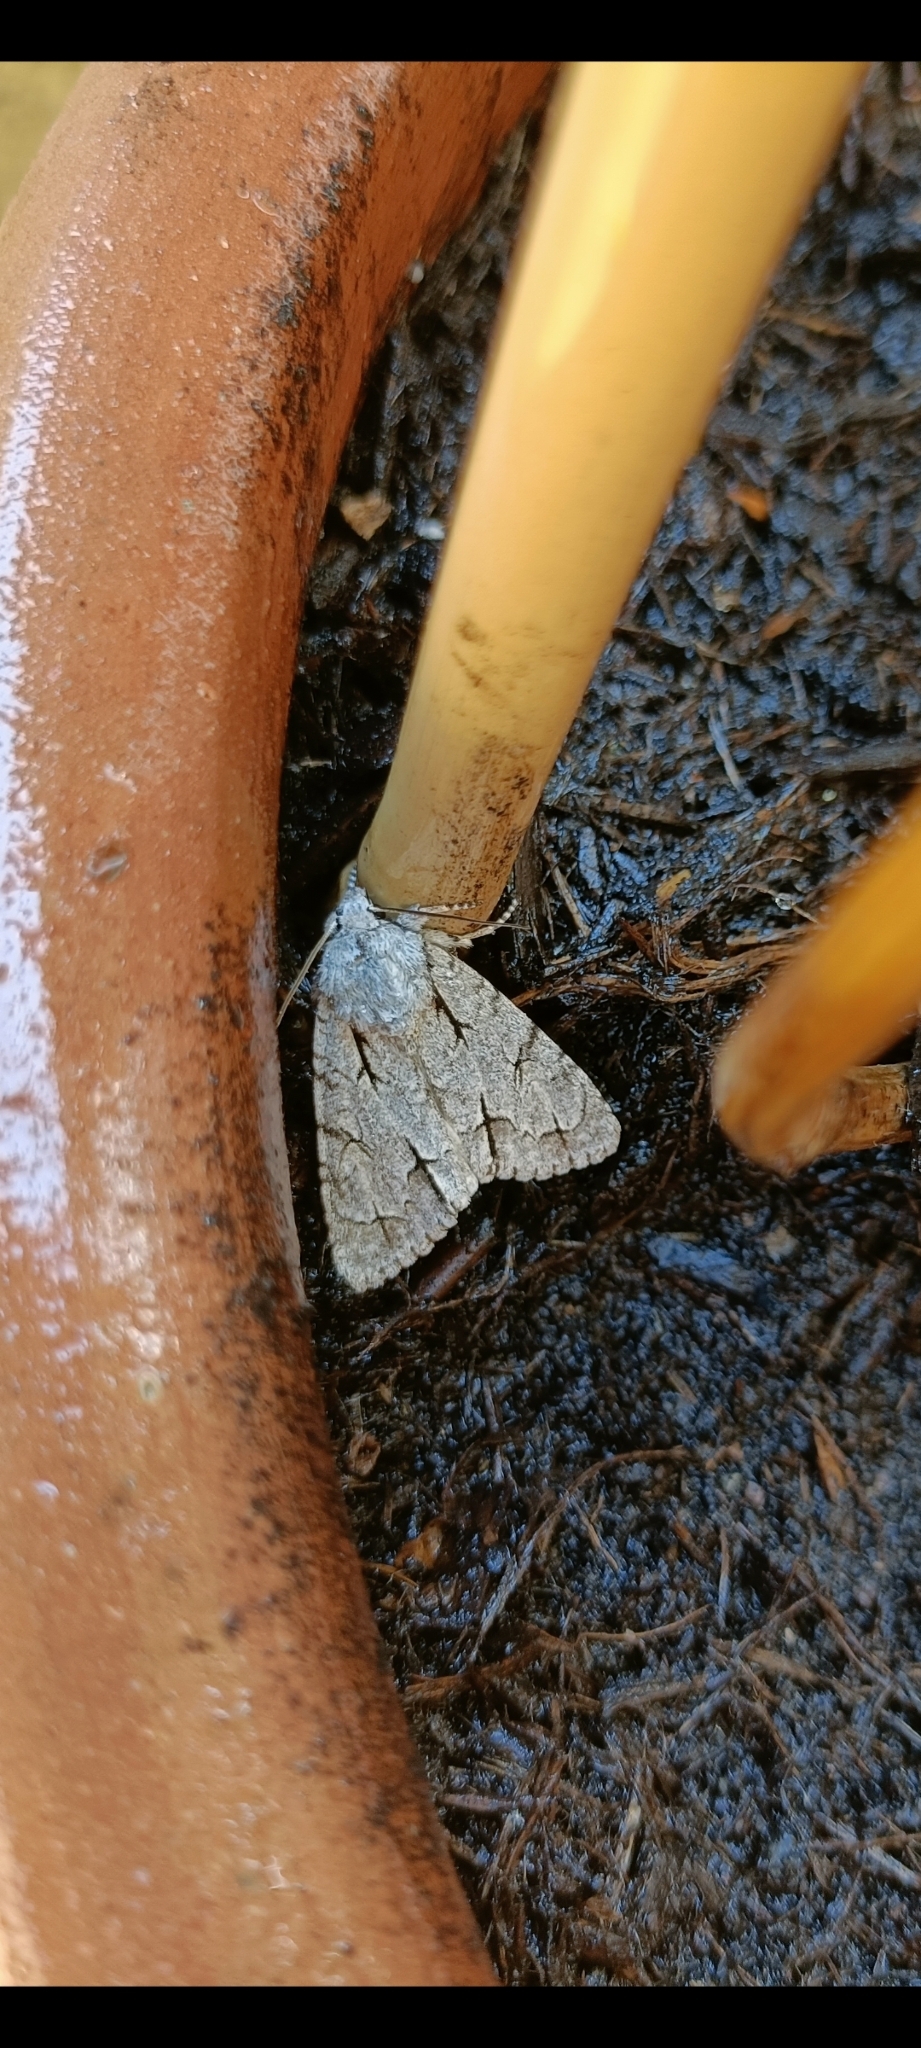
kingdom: Animalia
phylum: Arthropoda
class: Insecta
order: Lepidoptera
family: Noctuidae
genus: Acronicta
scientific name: Acronicta psi
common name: Grey dagger
